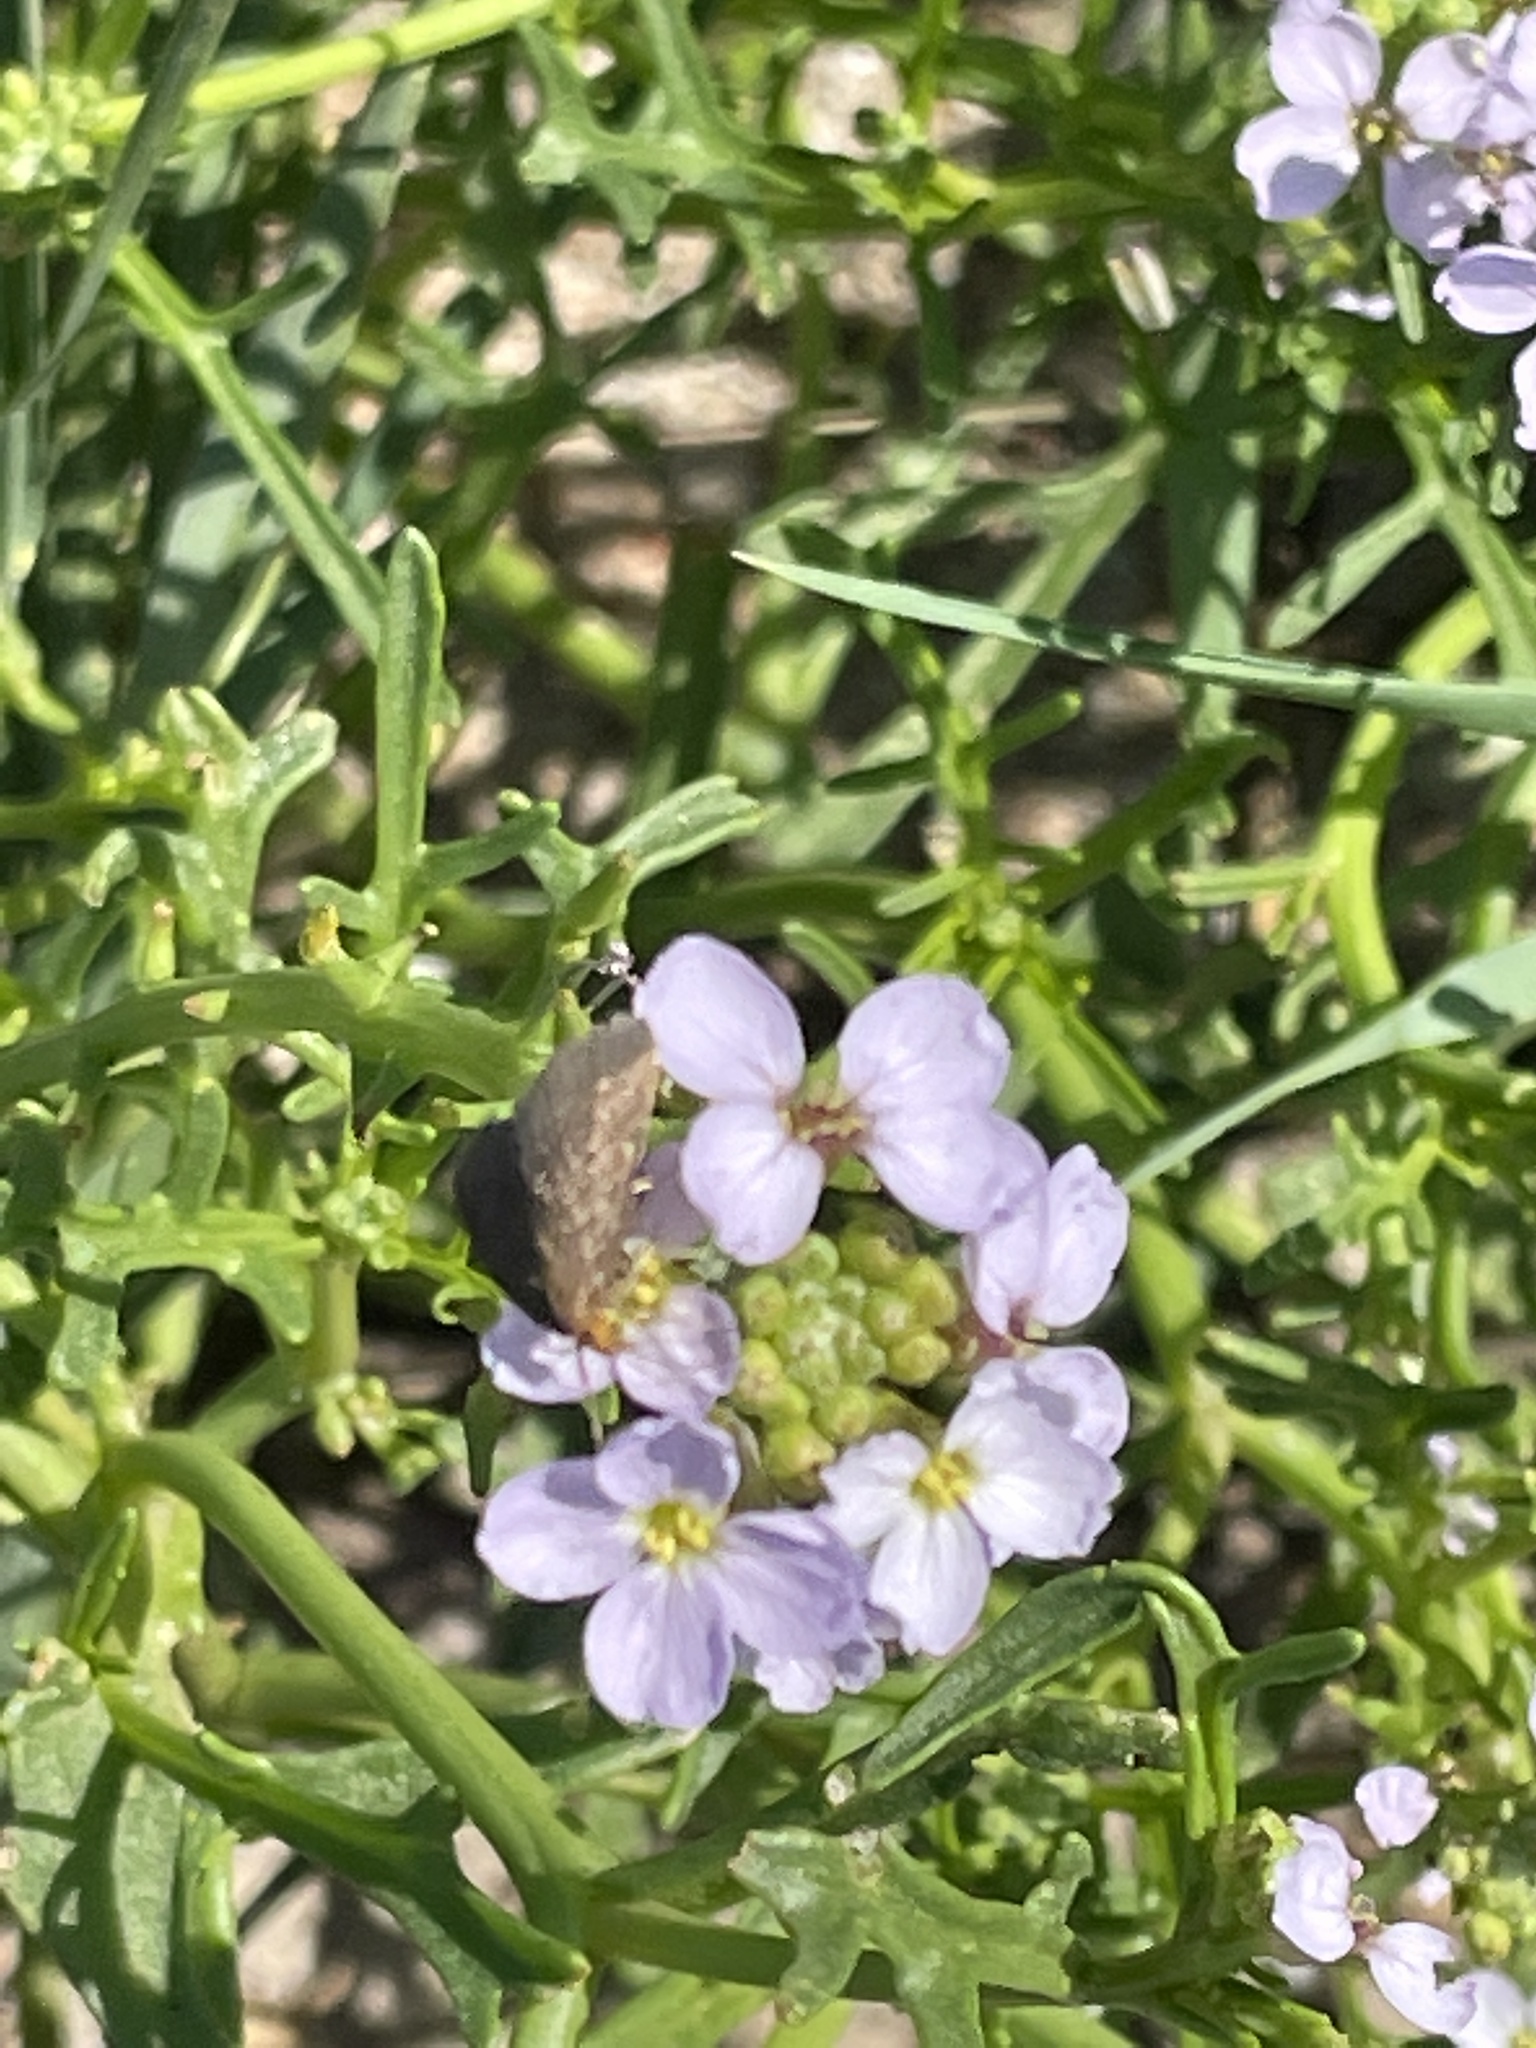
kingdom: Animalia
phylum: Arthropoda
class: Insecta
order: Lepidoptera
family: Crambidae
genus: Evergestis
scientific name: Evergestis aenealis
